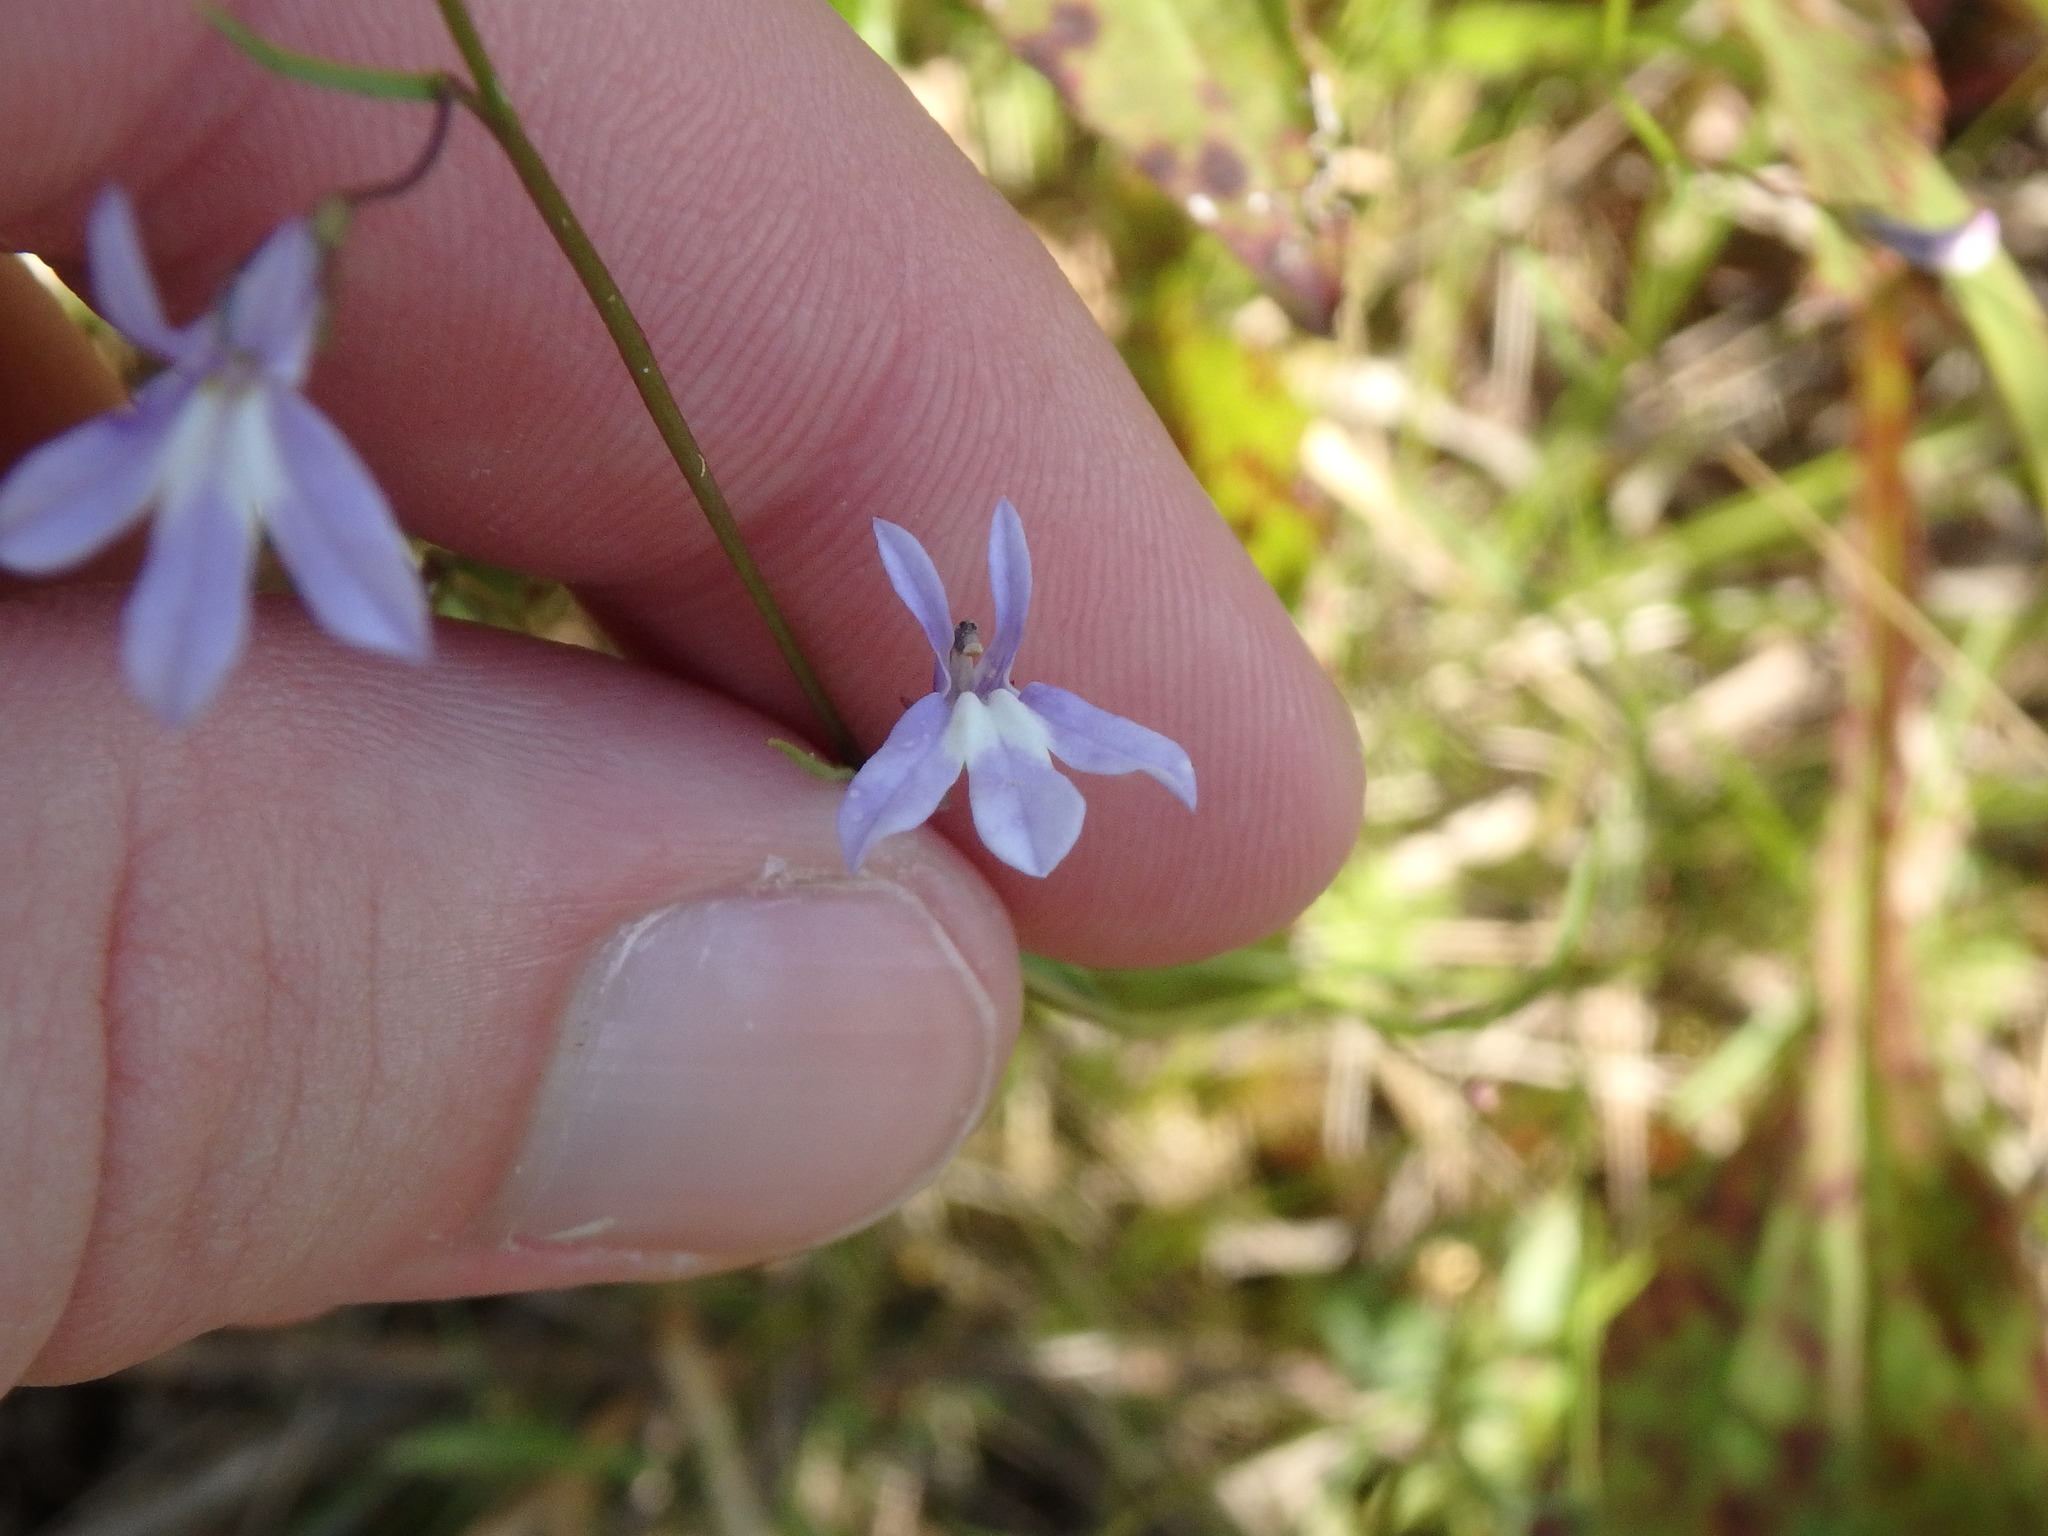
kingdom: Plantae
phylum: Tracheophyta
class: Magnoliopsida
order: Asterales
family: Campanulaceae
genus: Lobelia
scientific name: Lobelia kalmii
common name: Kalm's lobelia
